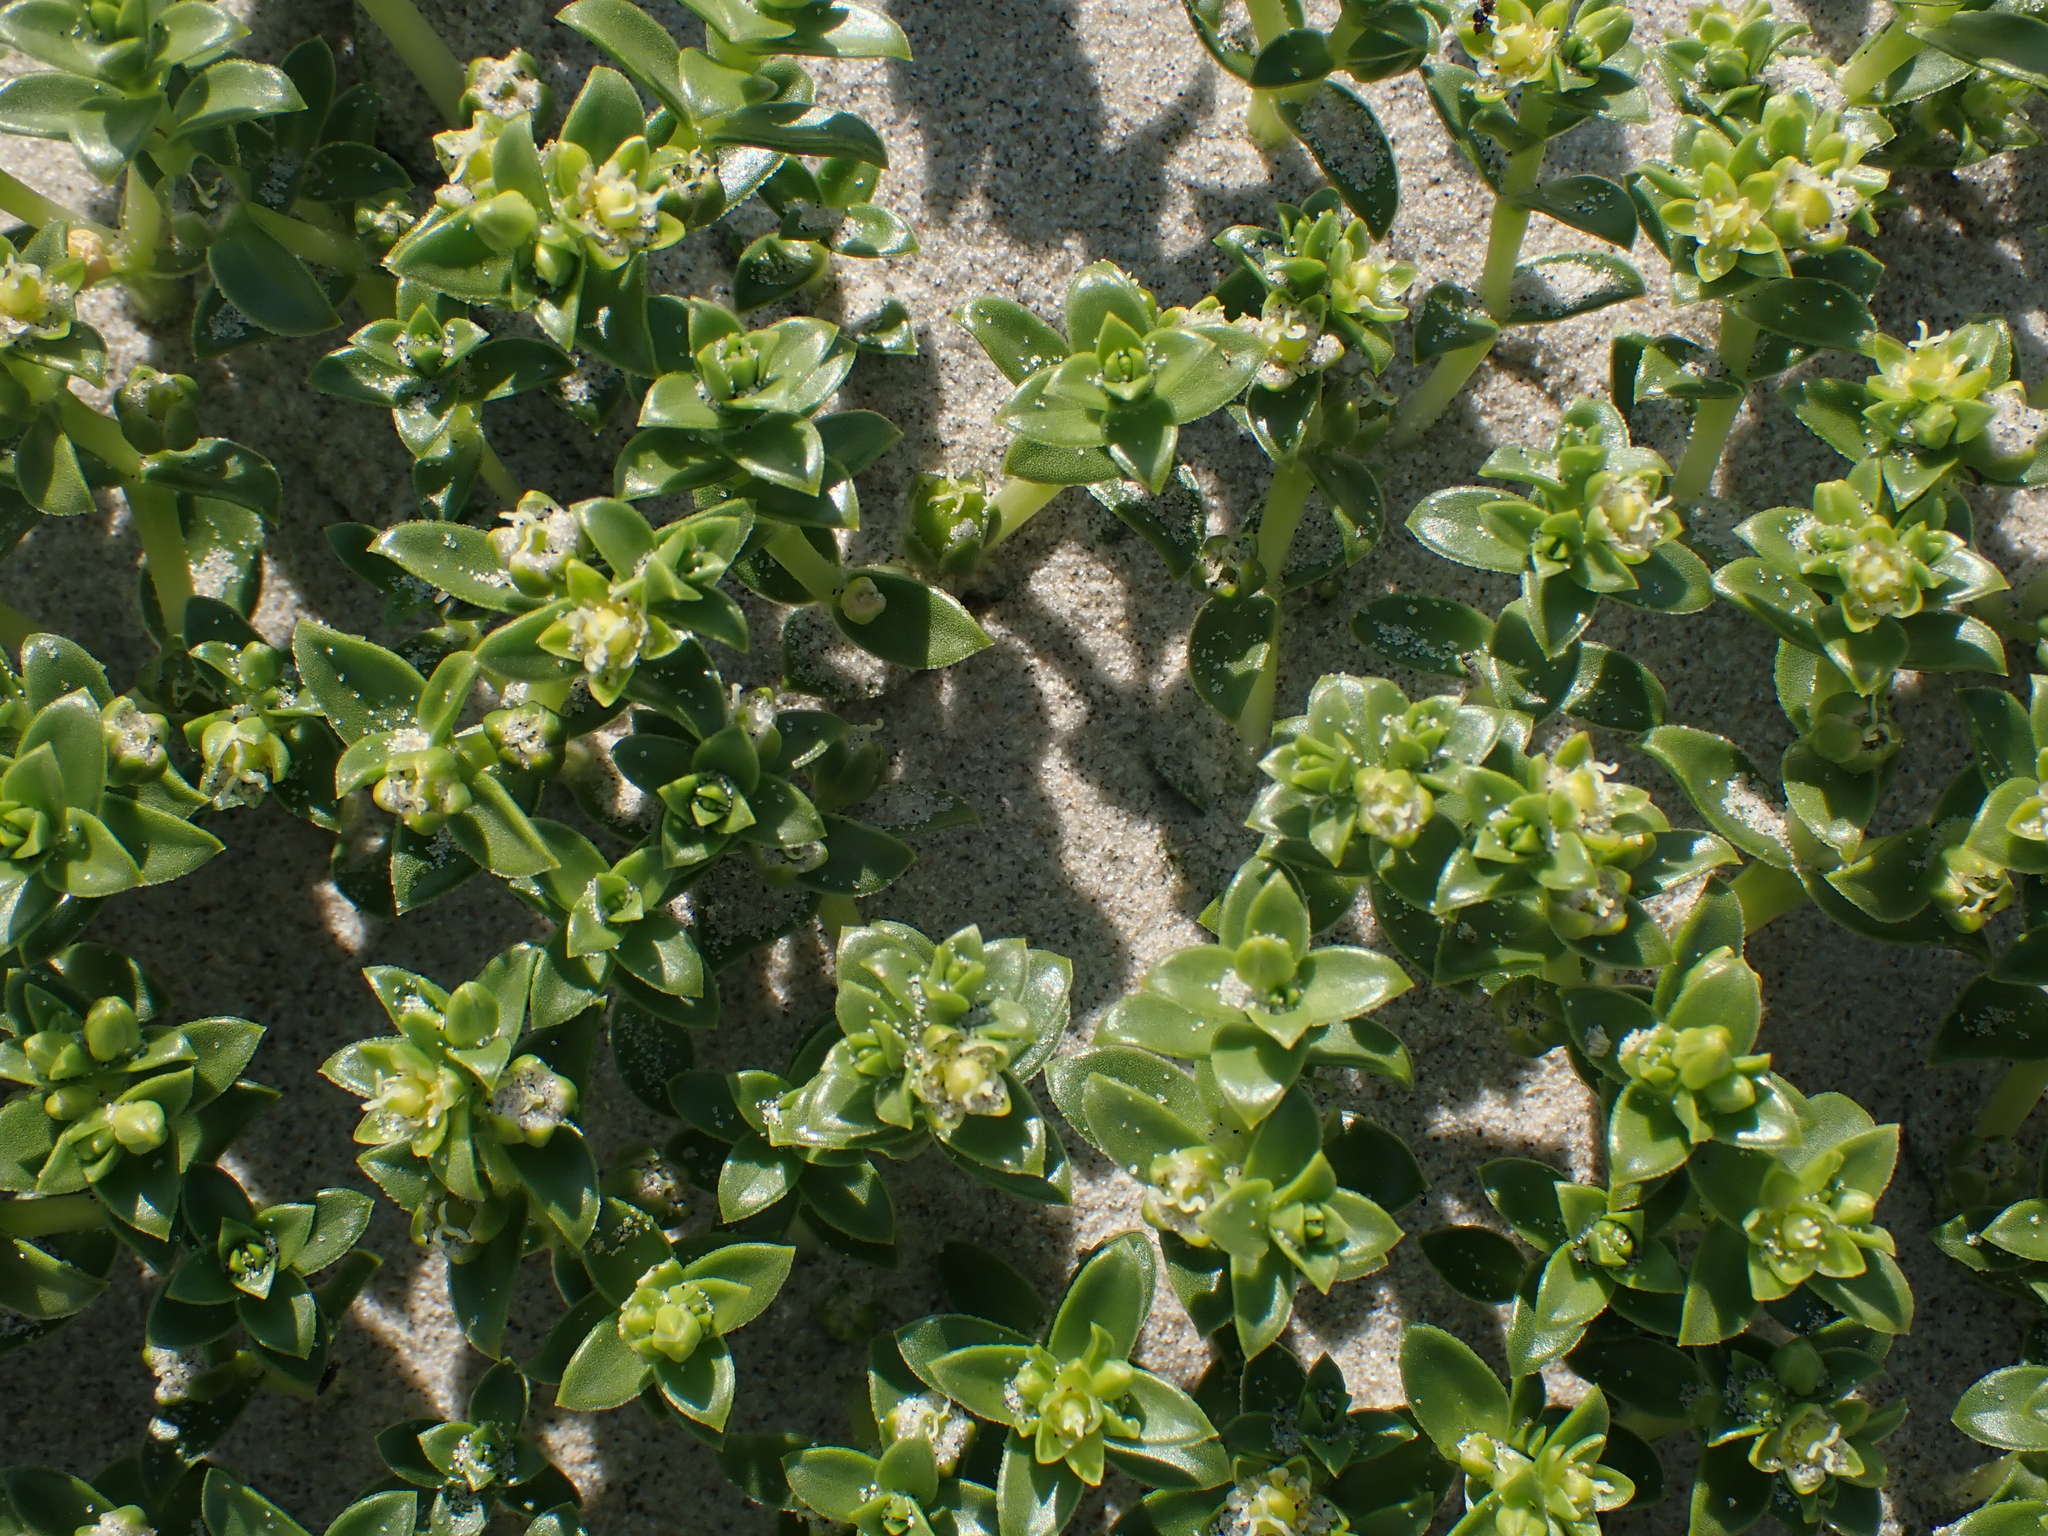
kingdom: Plantae
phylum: Tracheophyta
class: Magnoliopsida
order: Caryophyllales
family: Caryophyllaceae
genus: Honckenya
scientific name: Honckenya peploides
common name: Sea sandwort
